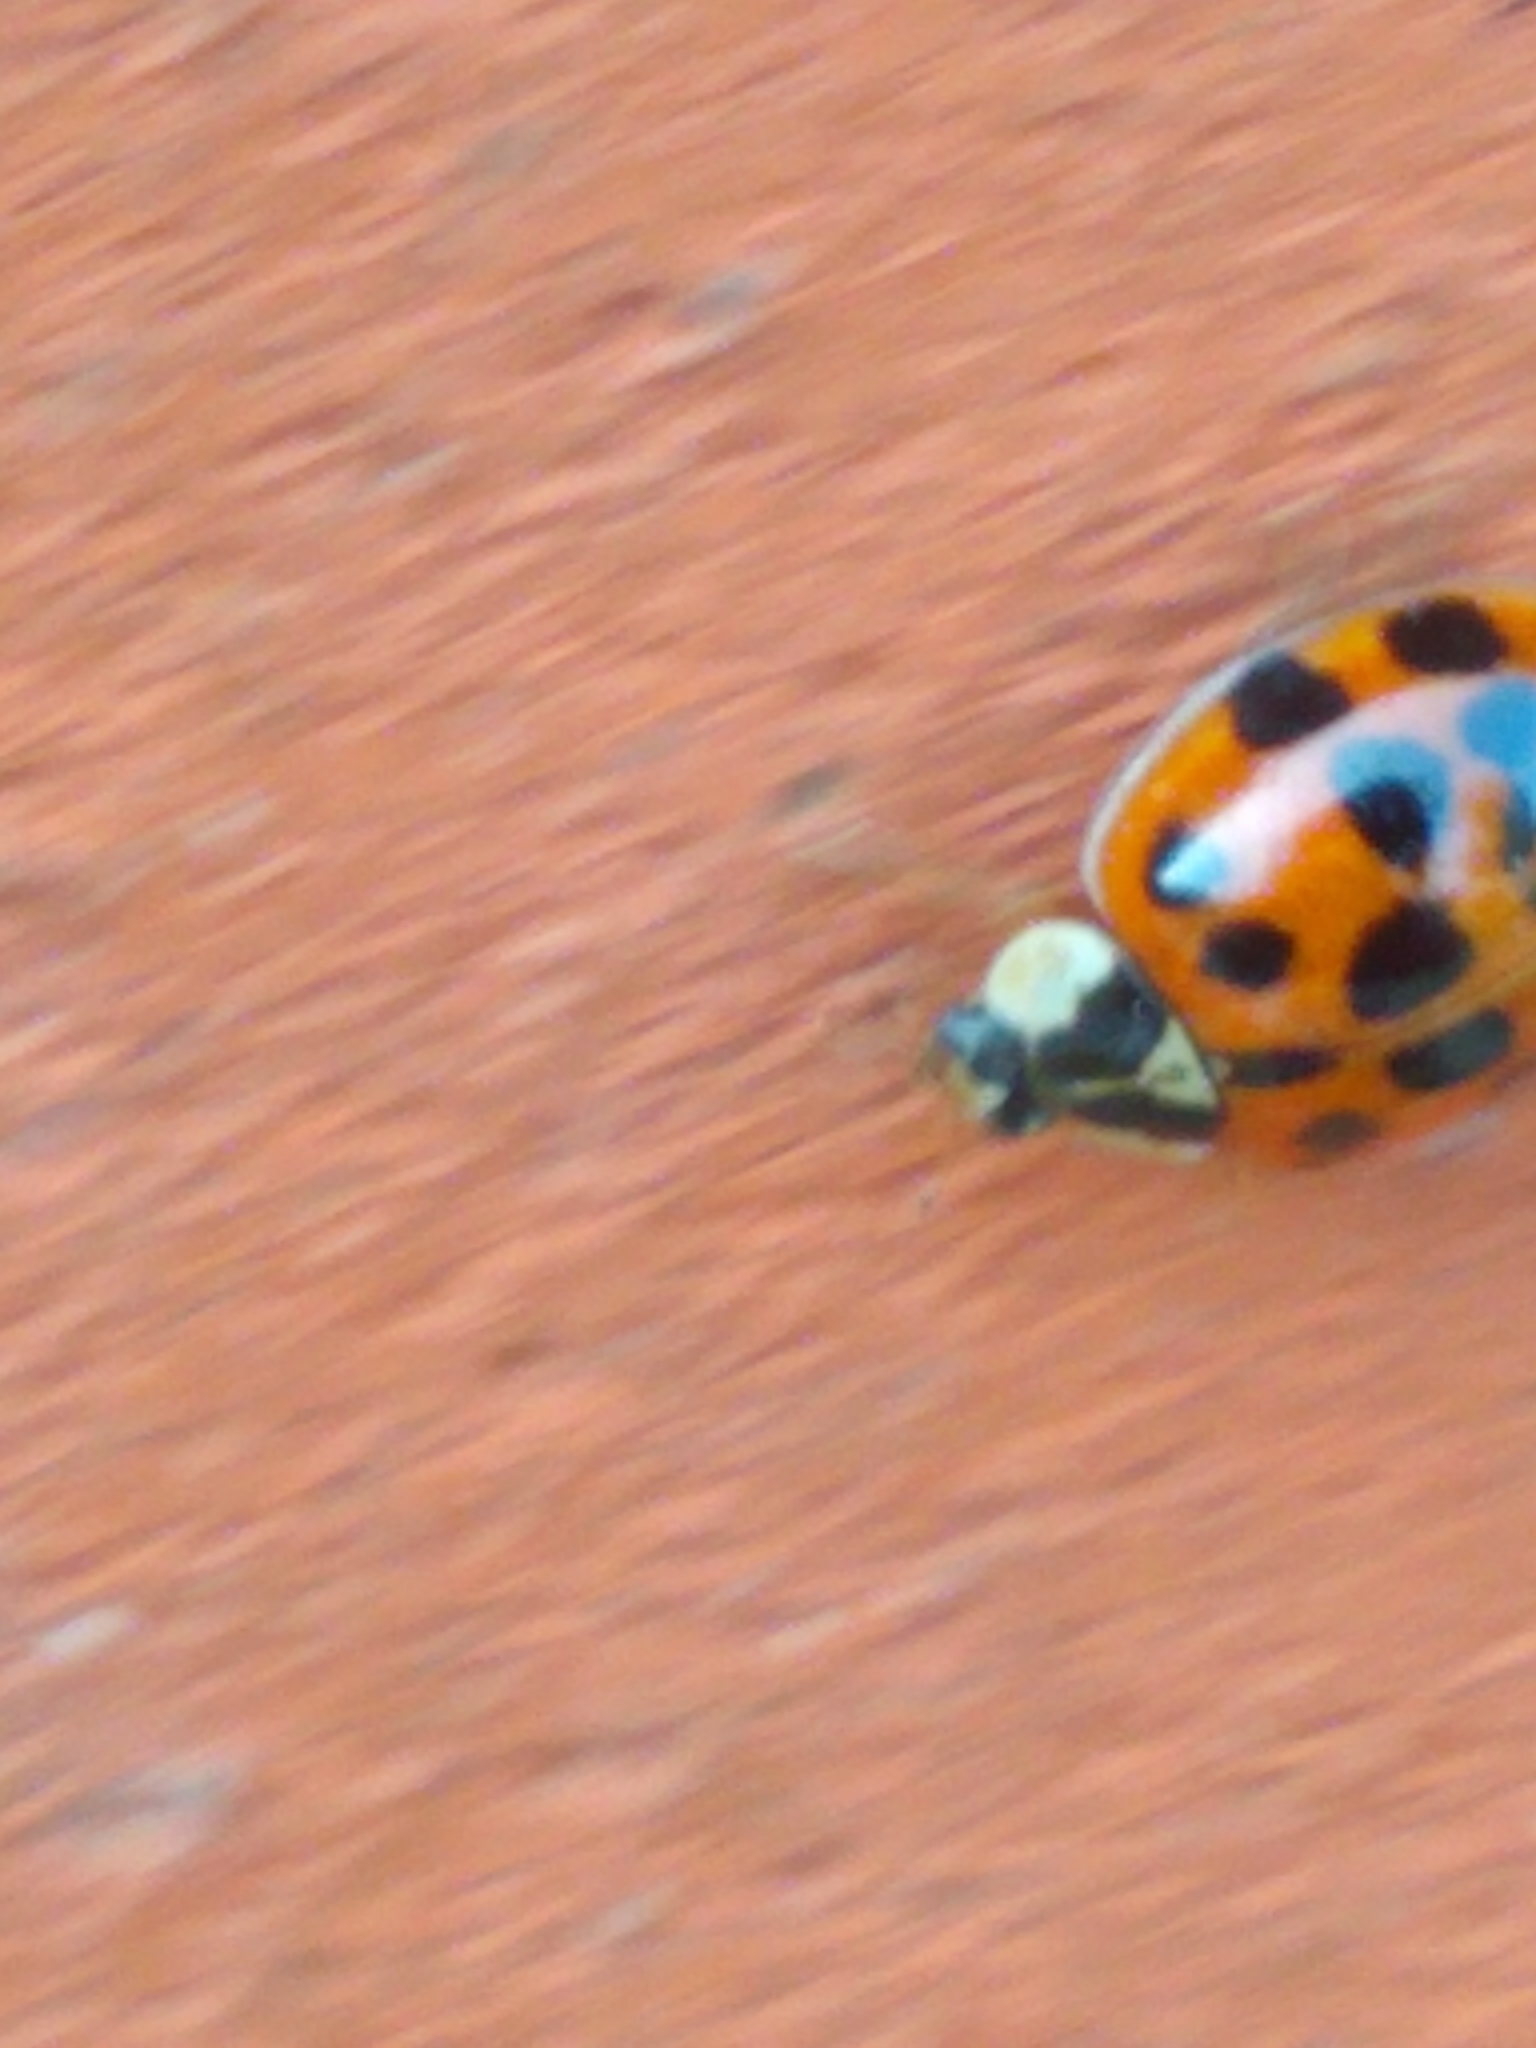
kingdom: Animalia
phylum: Arthropoda
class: Insecta
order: Coleoptera
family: Coccinellidae
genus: Harmonia
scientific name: Harmonia axyridis
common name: Harlequin ladybird
